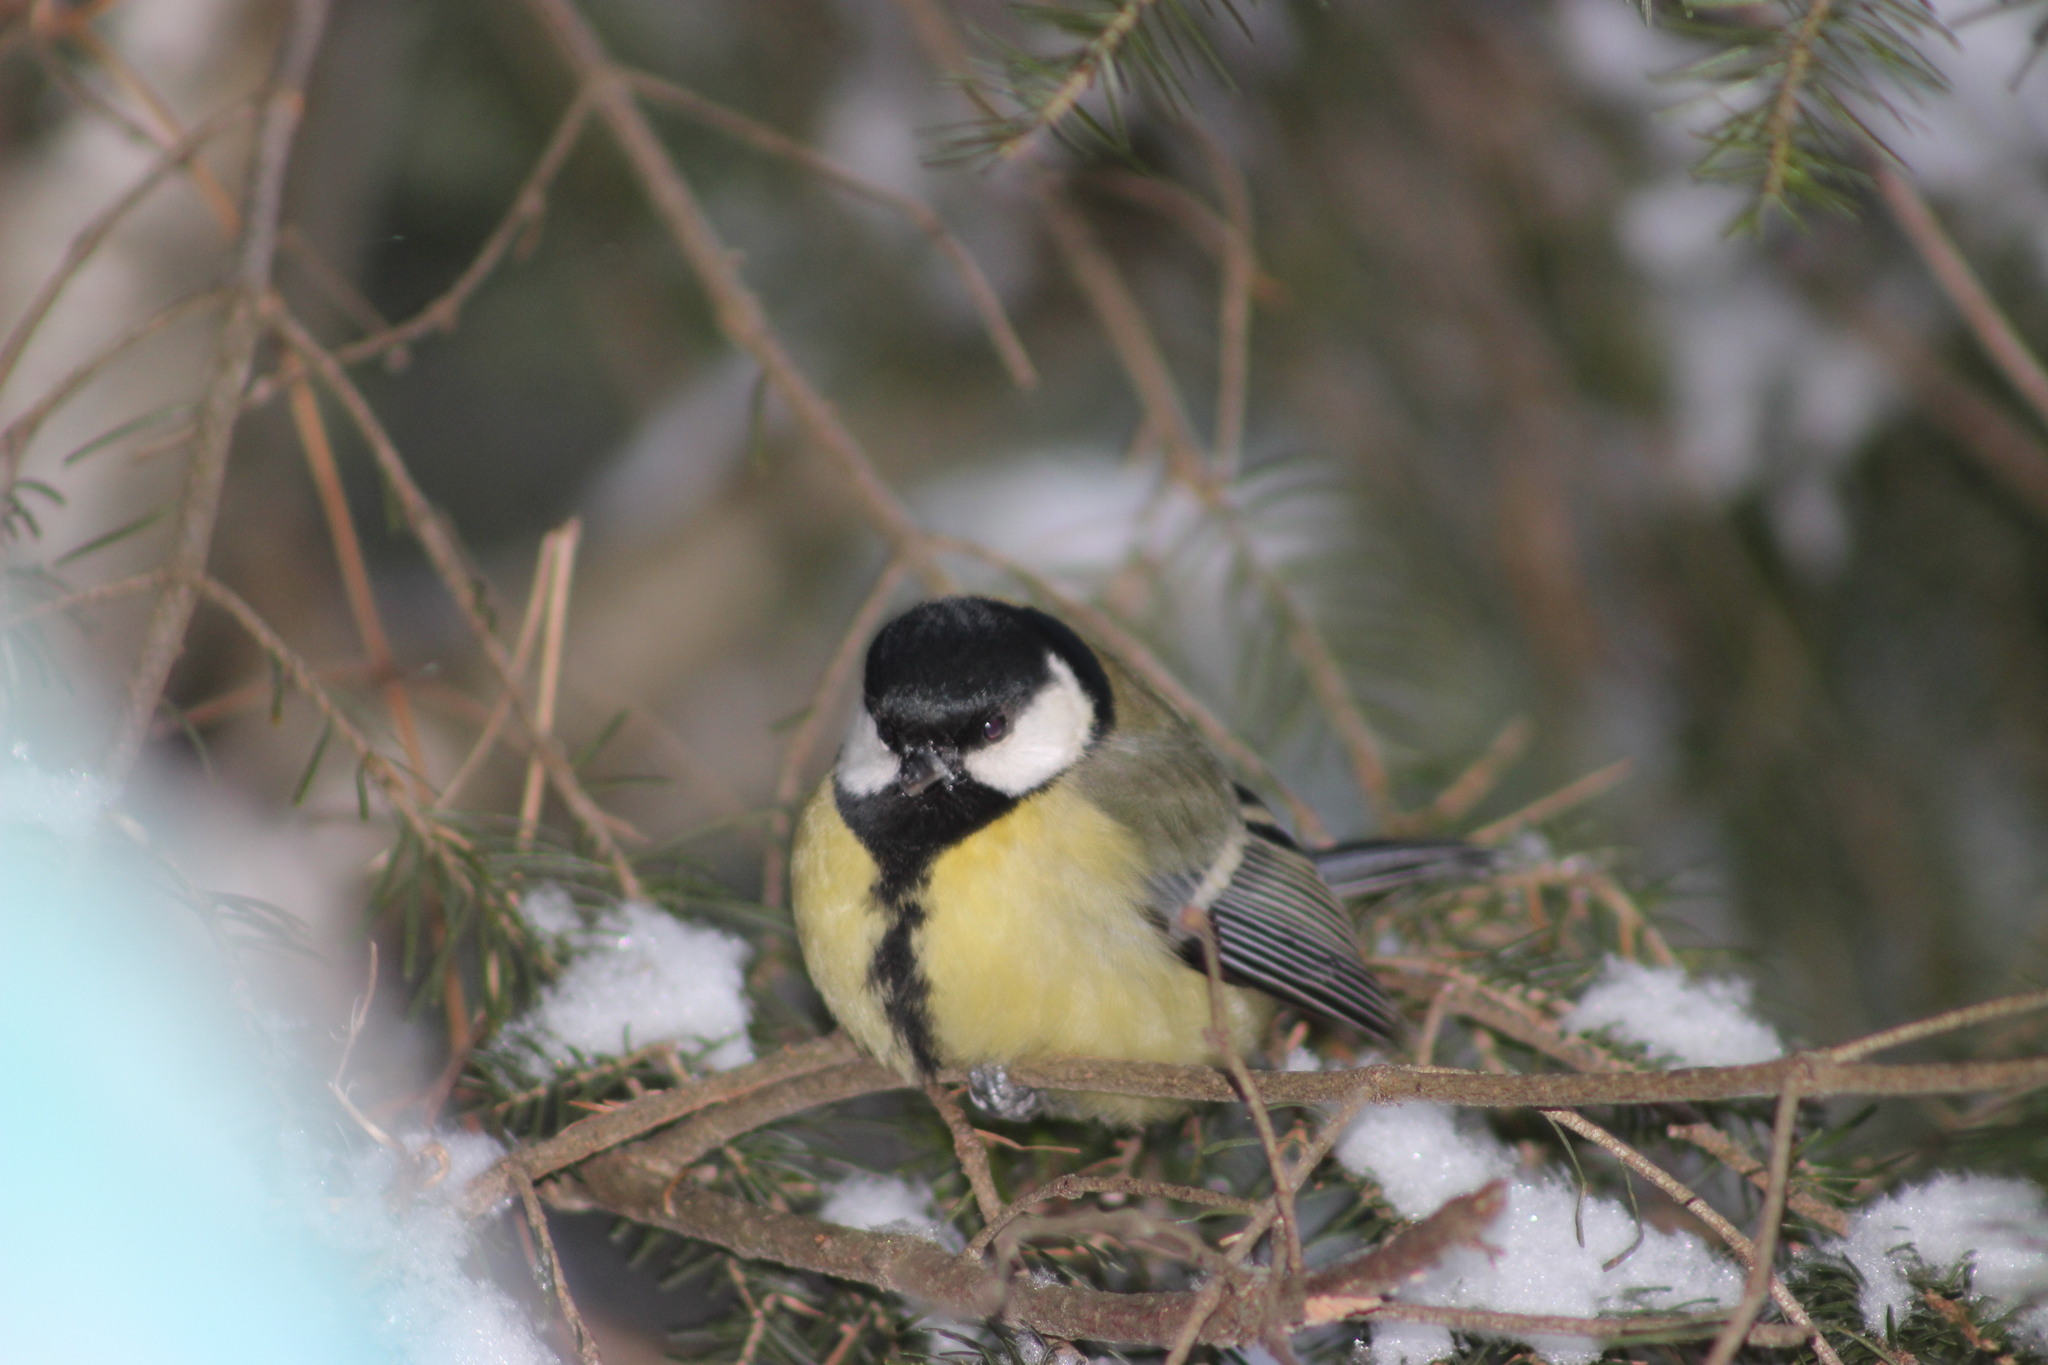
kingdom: Animalia
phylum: Chordata
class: Aves
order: Passeriformes
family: Paridae
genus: Parus
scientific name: Parus major
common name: Great tit
